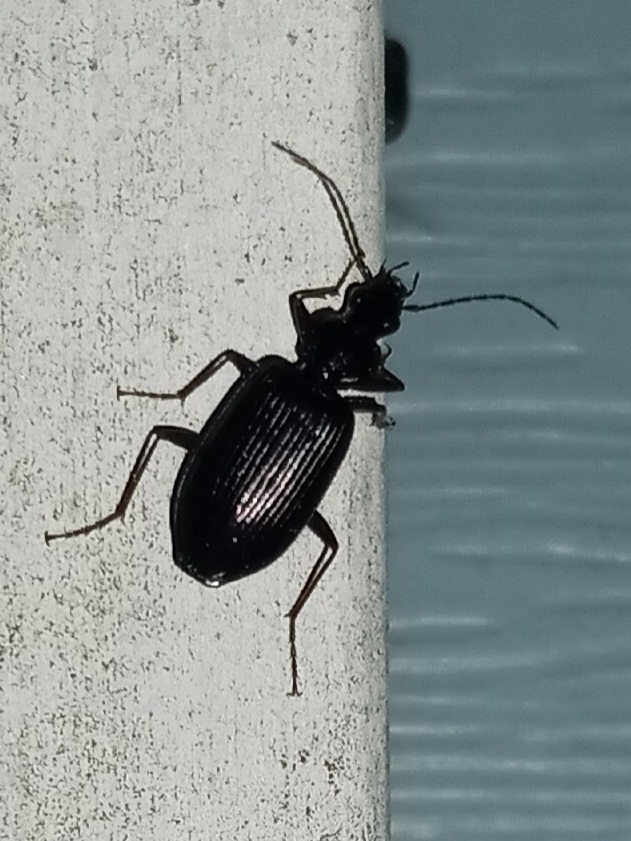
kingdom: Animalia
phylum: Arthropoda
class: Insecta
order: Coleoptera
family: Carabidae
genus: Platynus
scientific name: Platynus cincticollis
